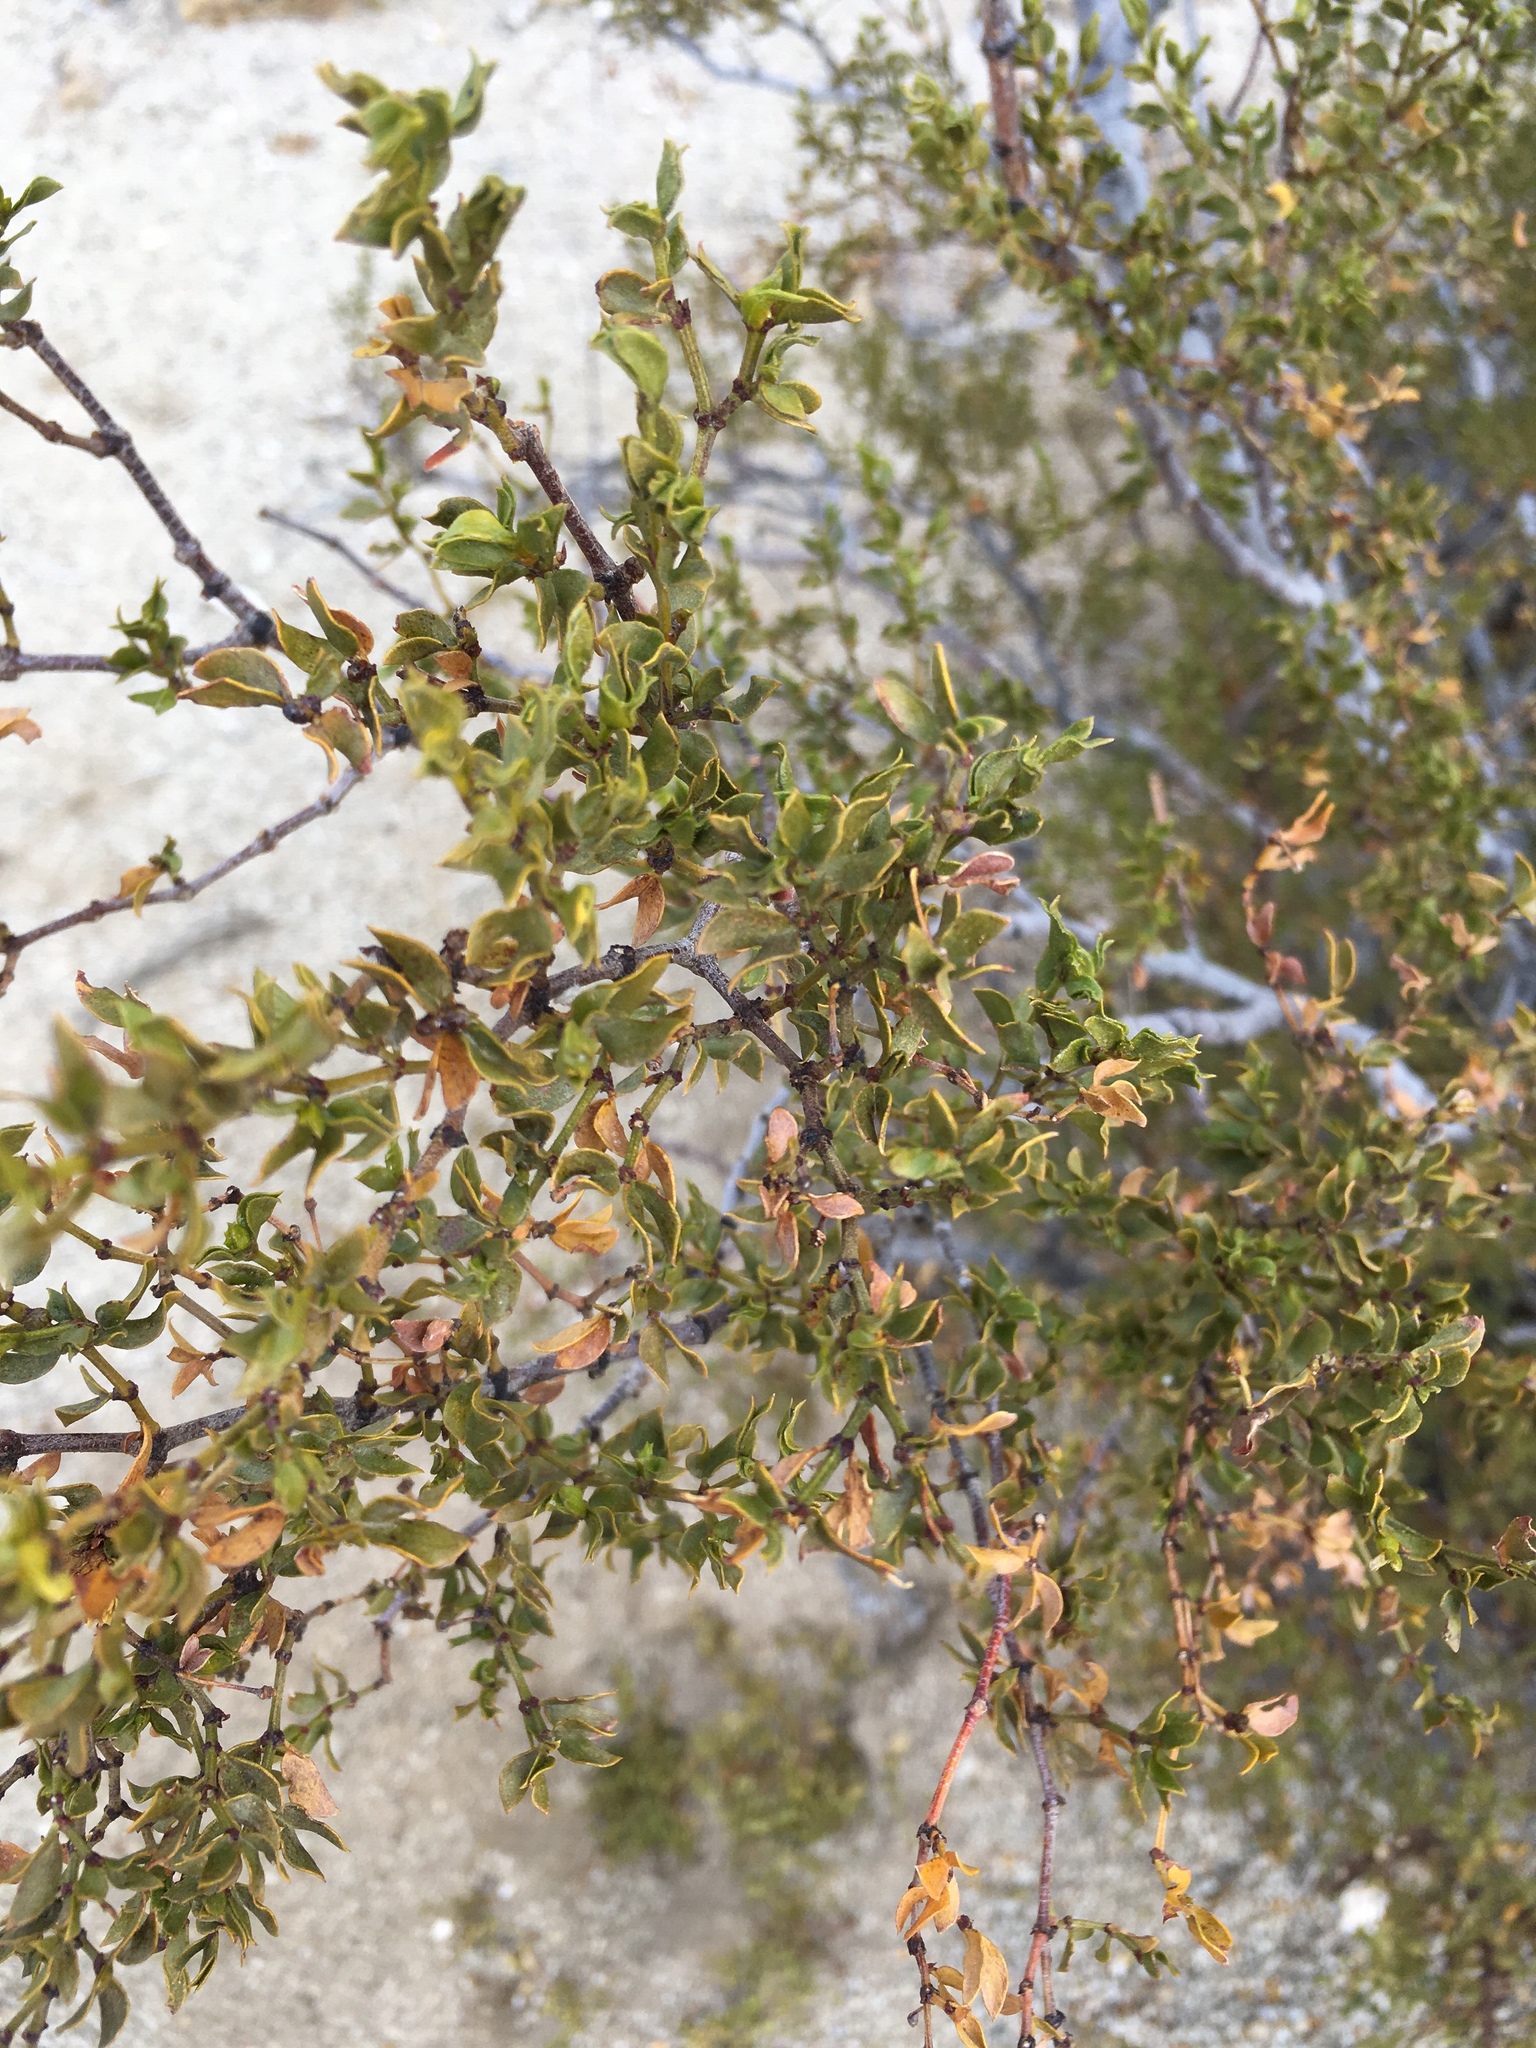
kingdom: Animalia
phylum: Arthropoda
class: Insecta
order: Diptera
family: Cecidomyiidae
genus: Asphondylia
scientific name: Asphondylia auripila
